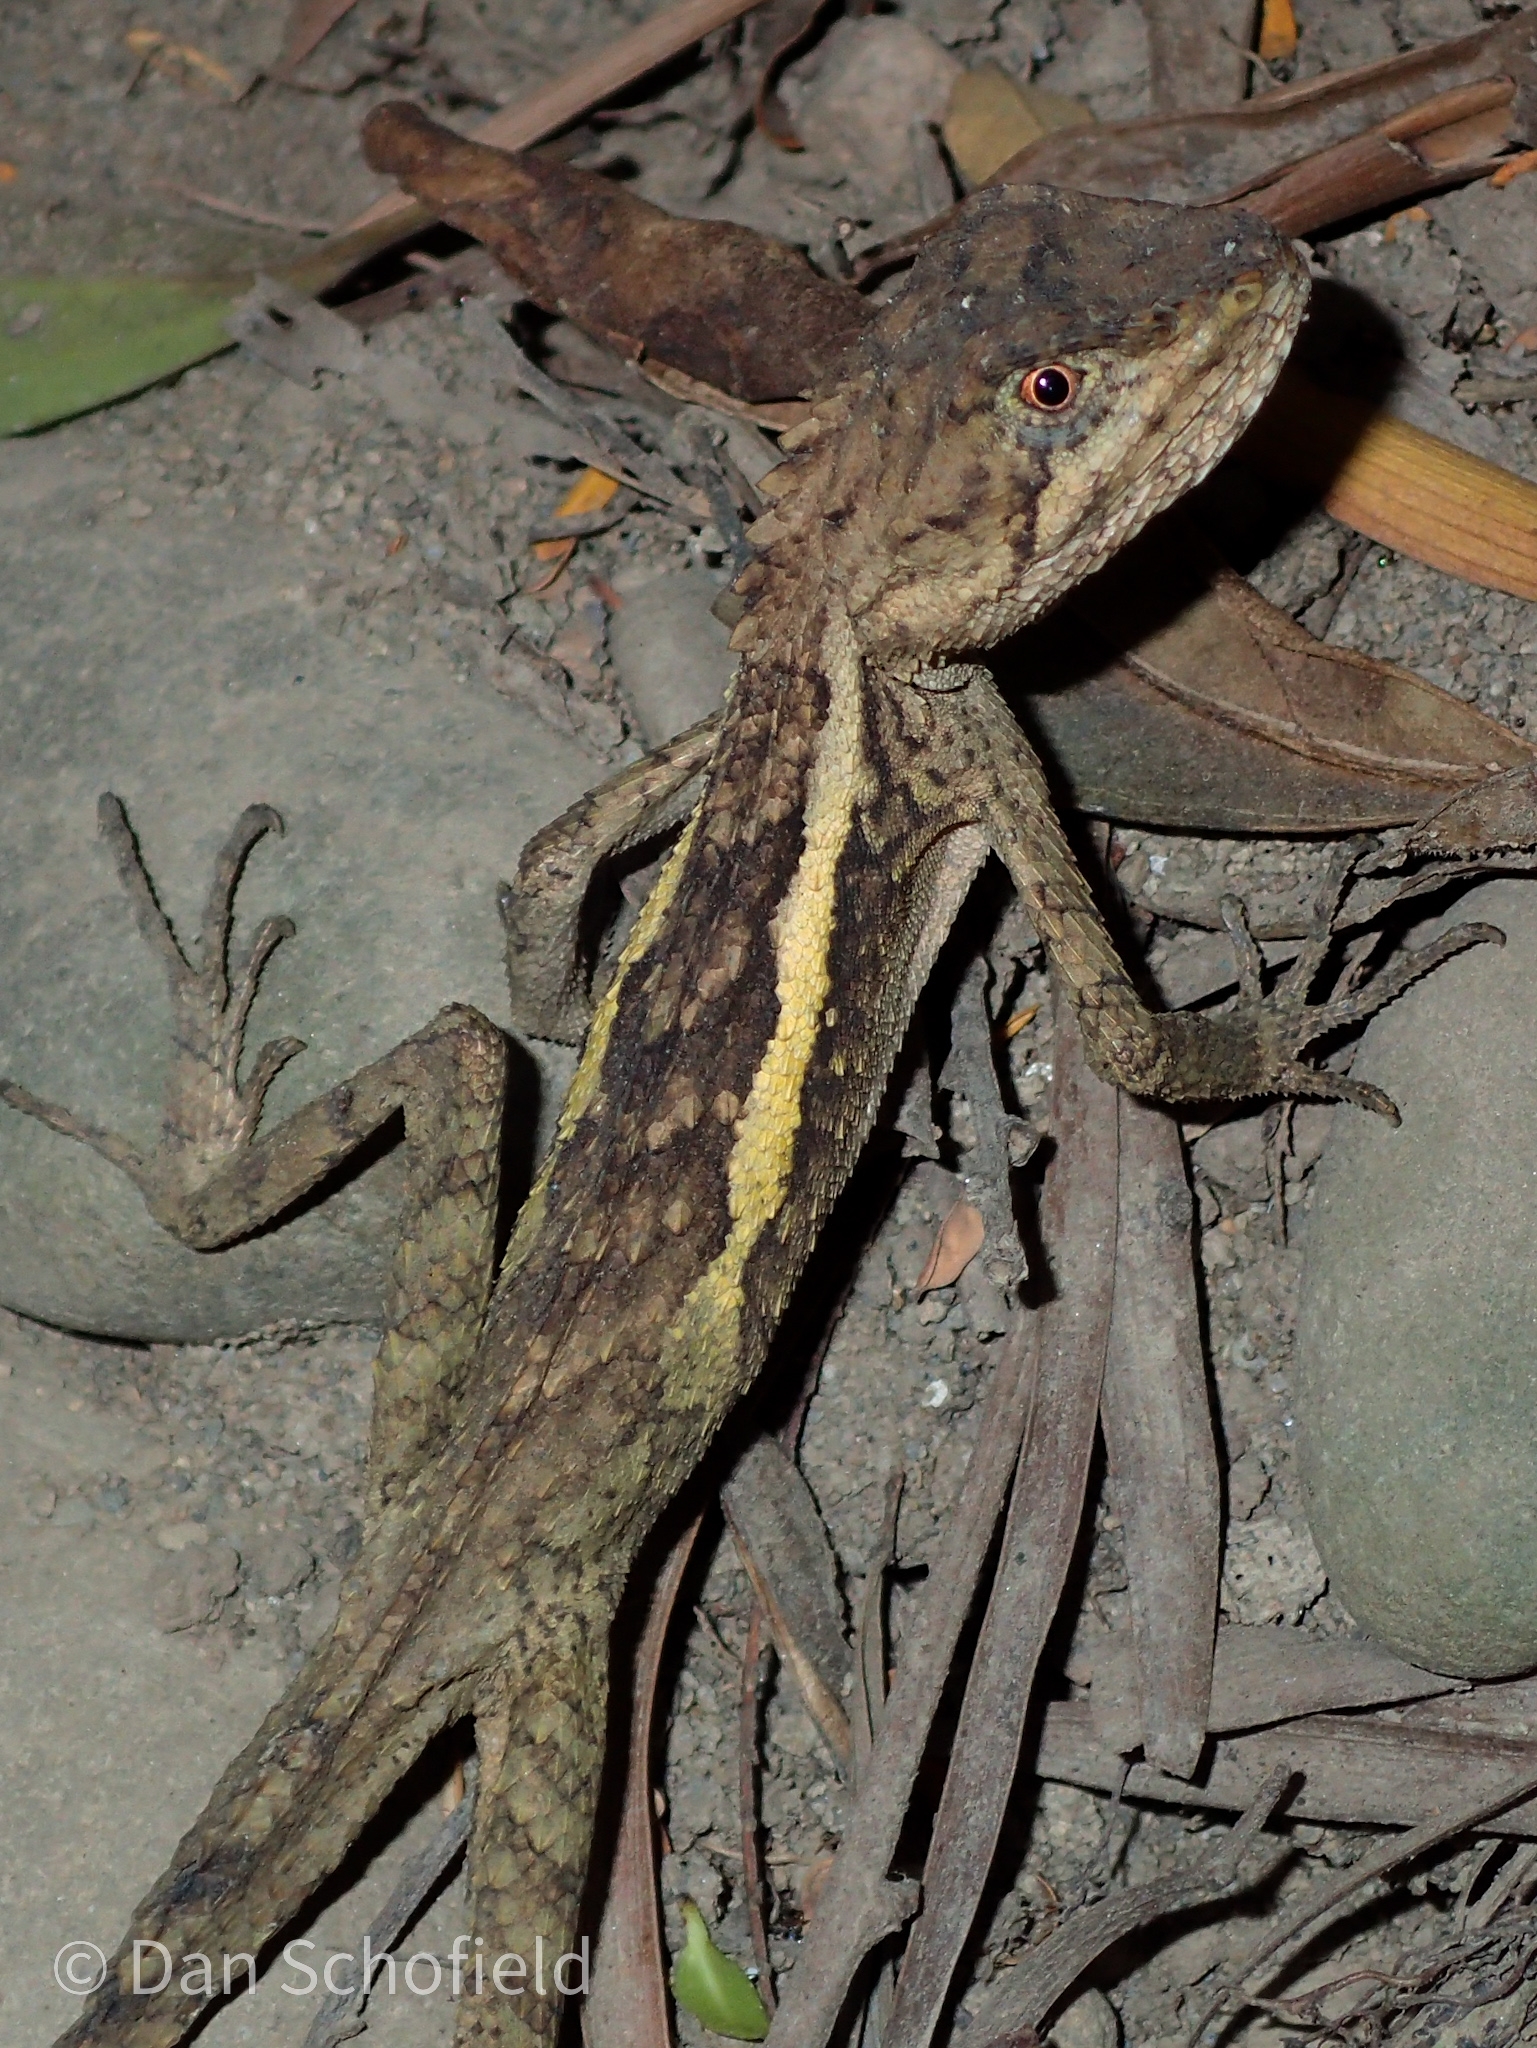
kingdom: Animalia
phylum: Chordata
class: Squamata
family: Agamidae
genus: Diploderma
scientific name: Diploderma swinhonis
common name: Taiwan japalure
